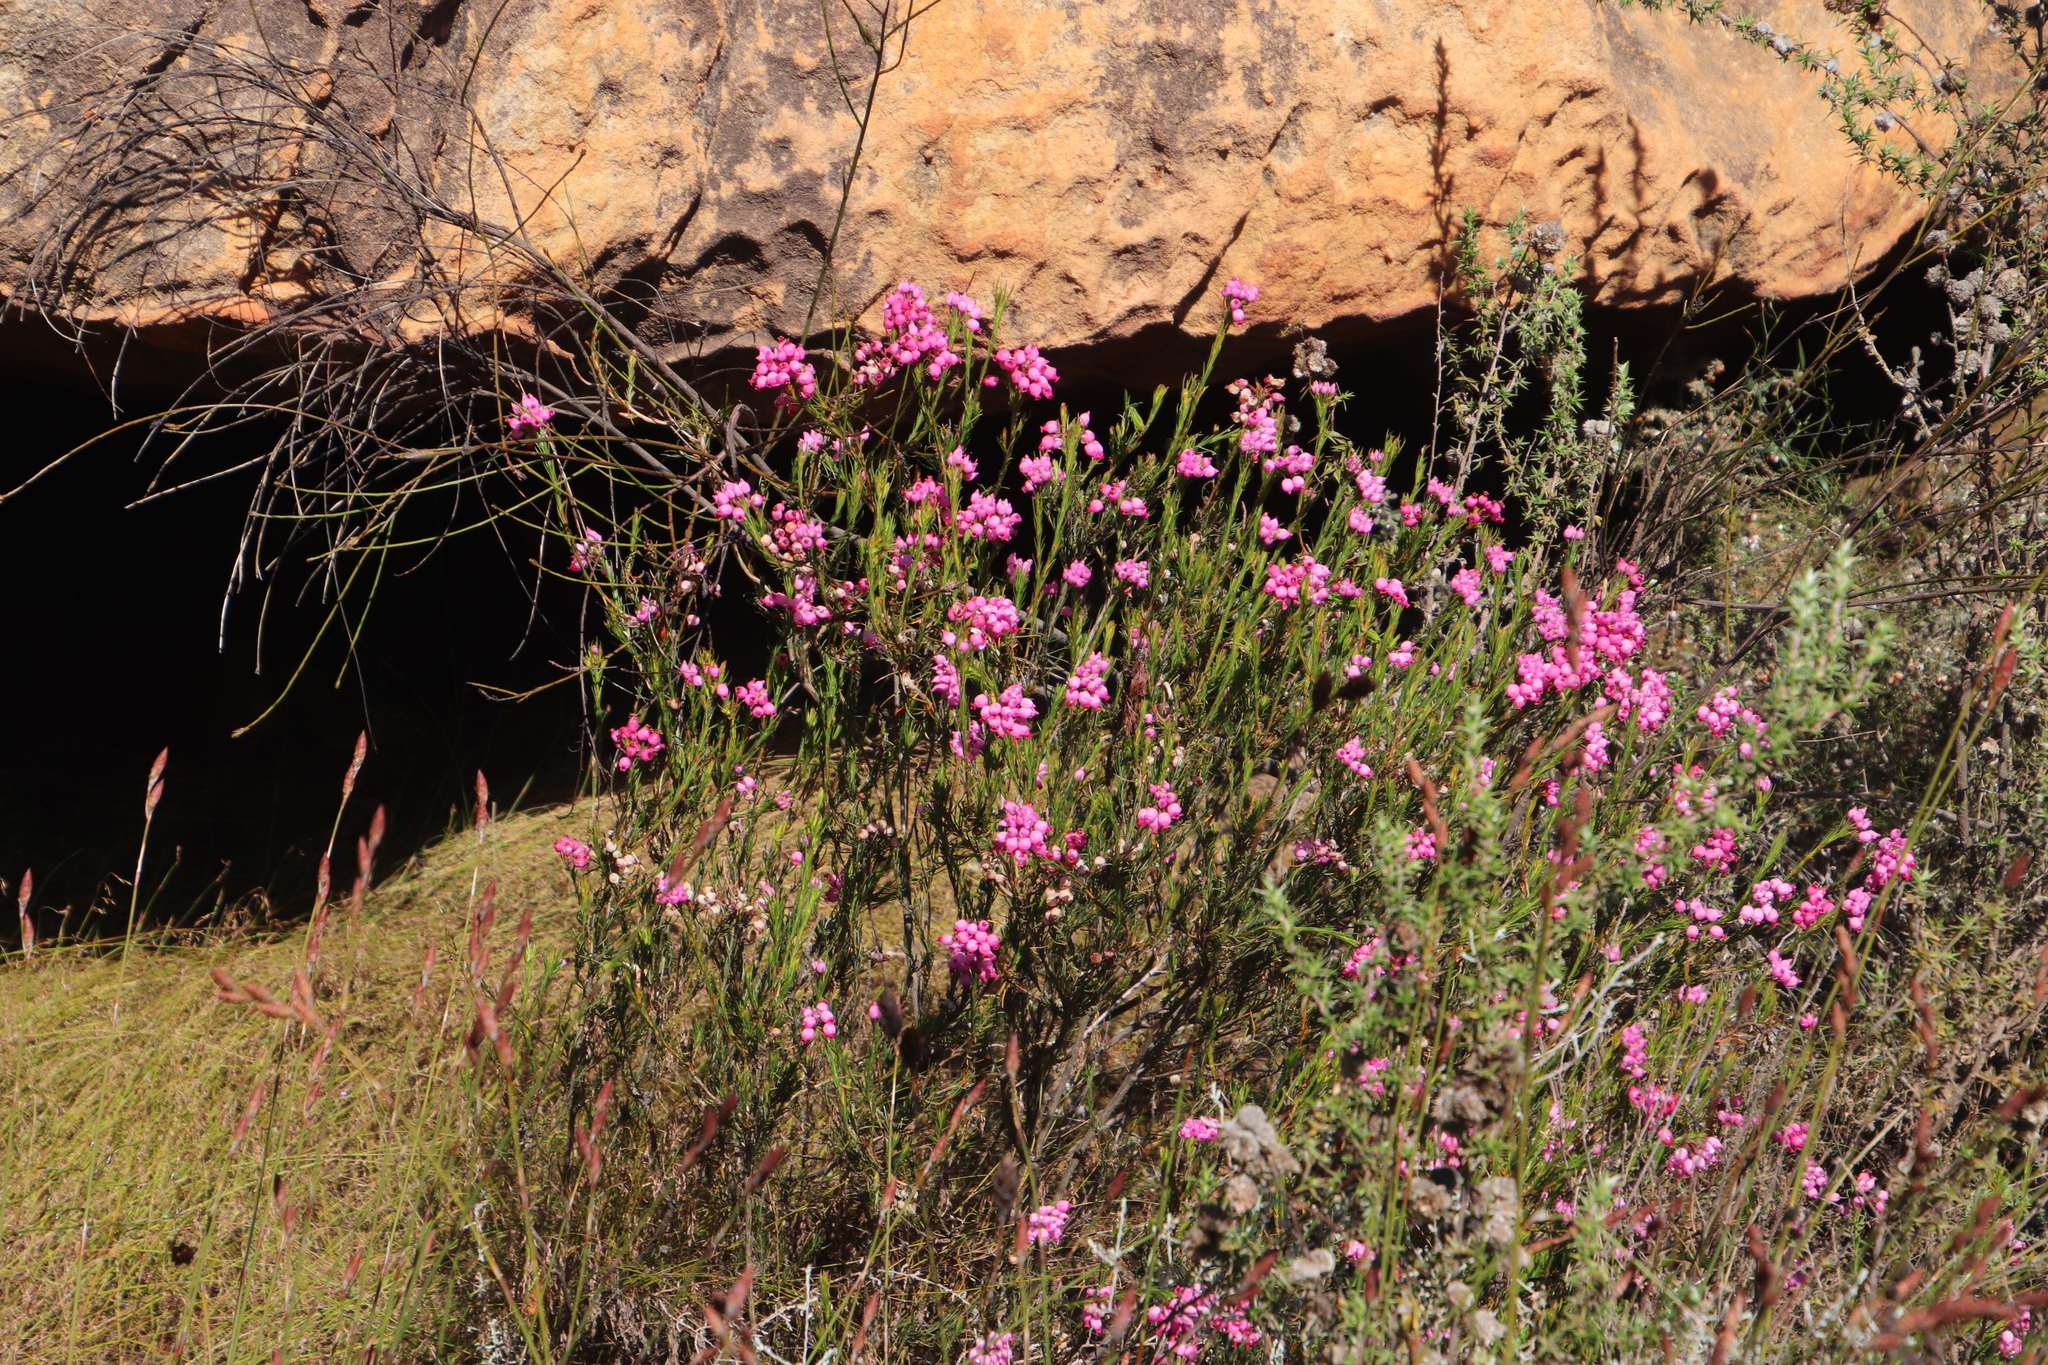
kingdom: Plantae
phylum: Tracheophyta
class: Magnoliopsida
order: Ericales
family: Ericaceae
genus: Erica
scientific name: Erica inflata
